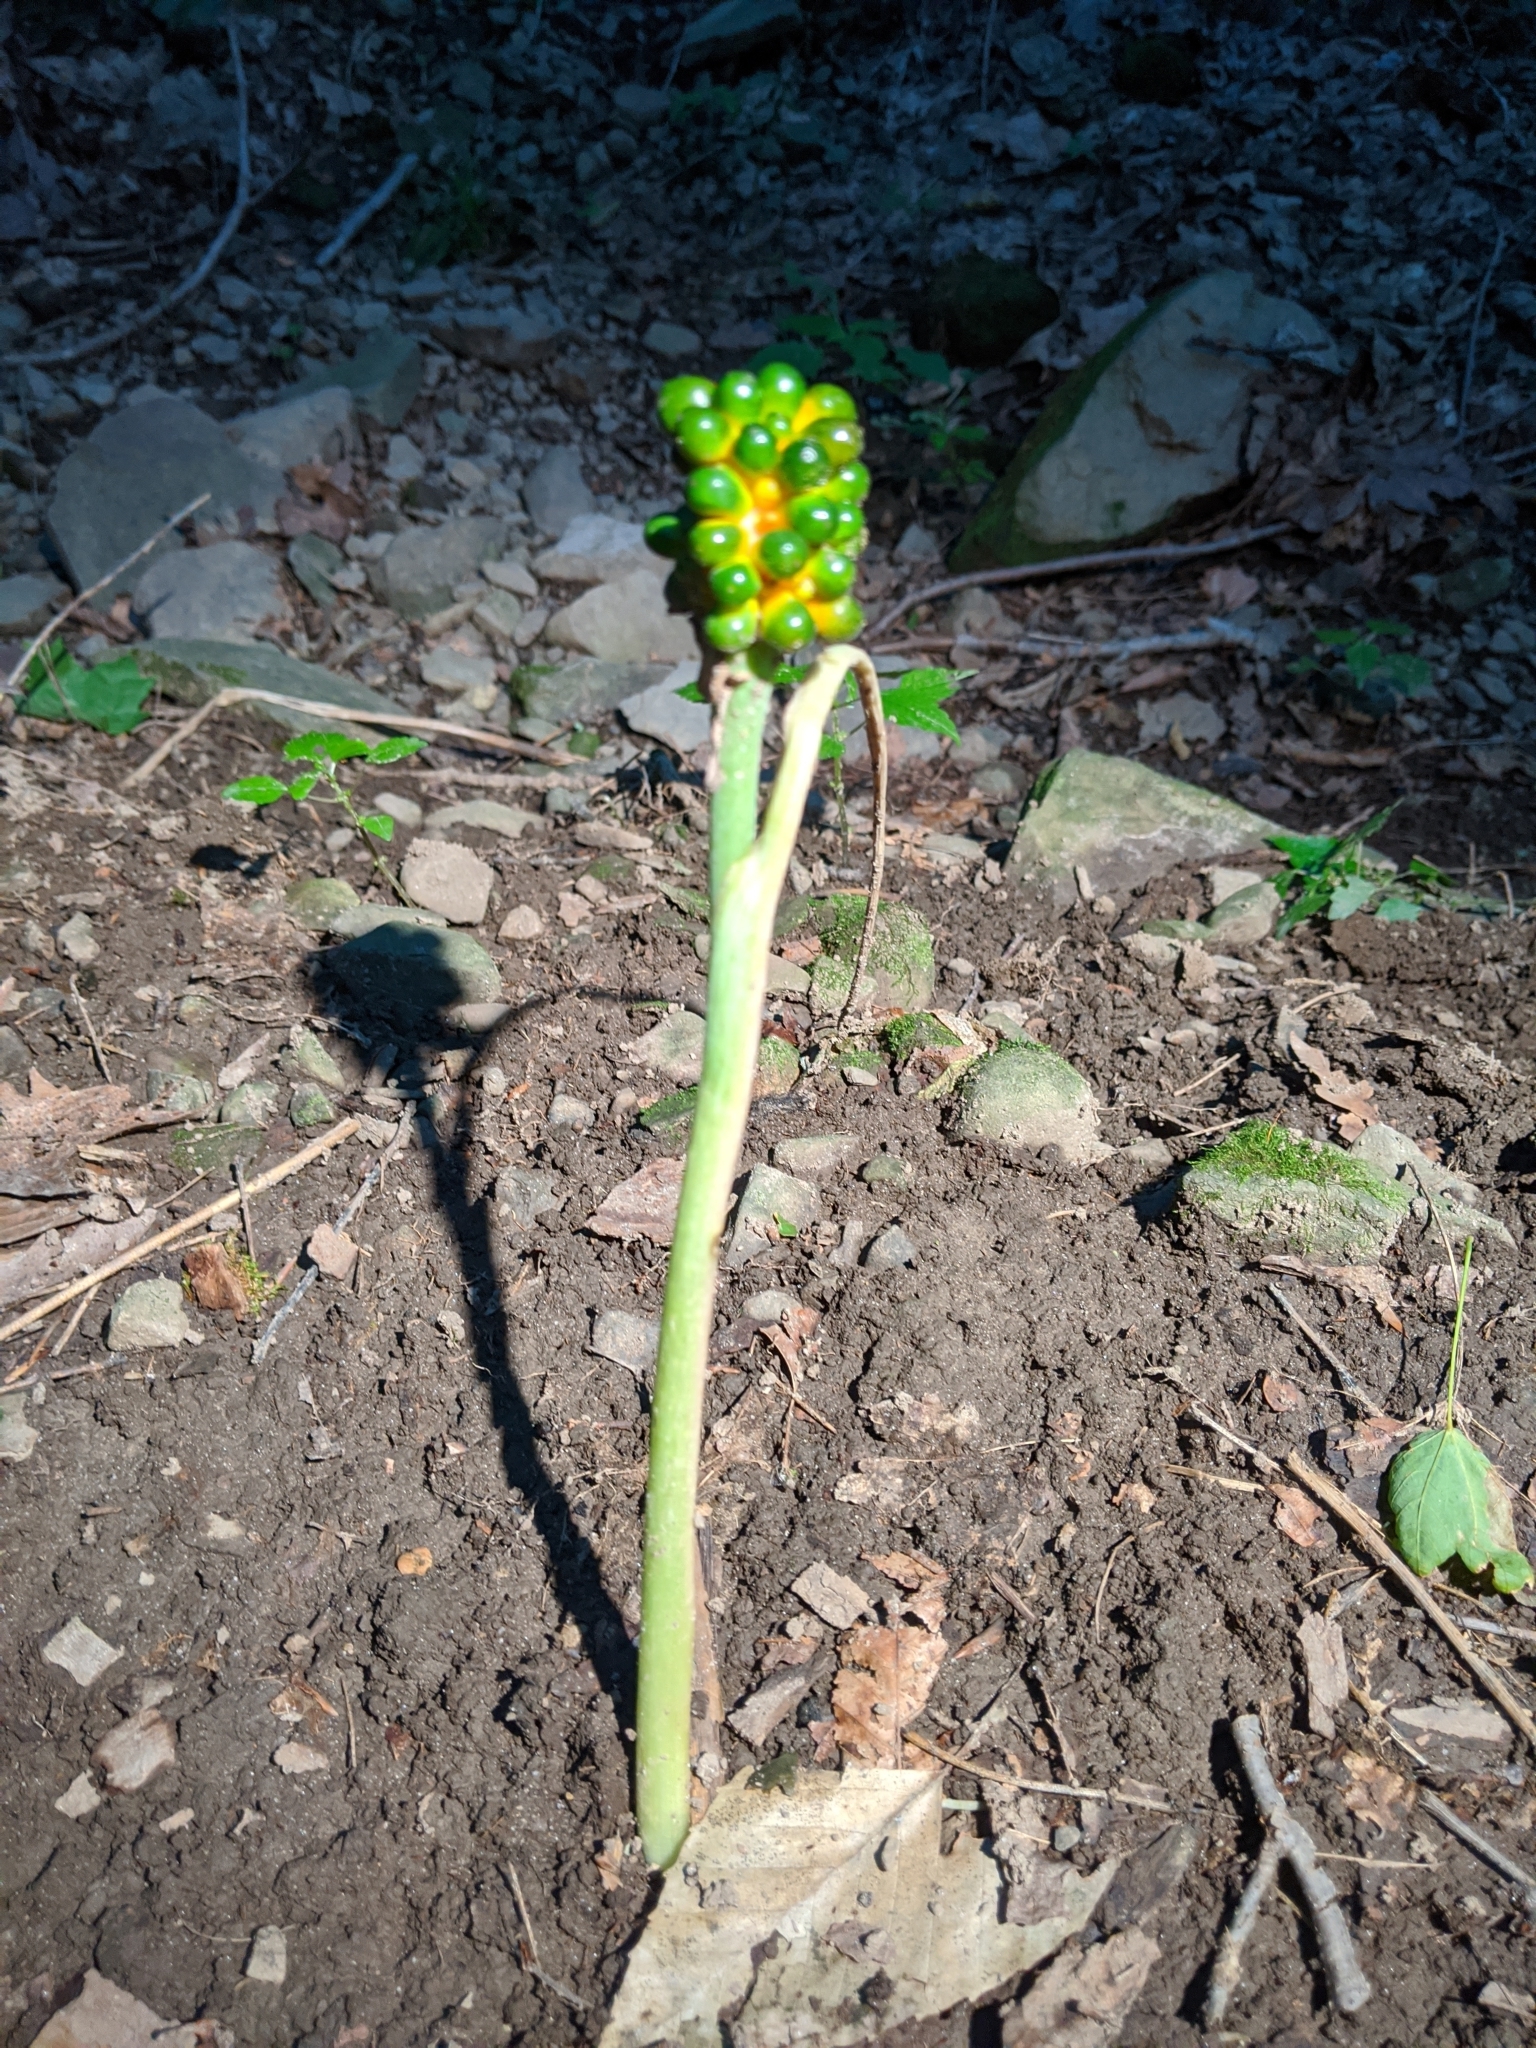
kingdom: Plantae
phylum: Tracheophyta
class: Liliopsida
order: Alismatales
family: Araceae
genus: Arisaema
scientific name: Arisaema triphyllum
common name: Jack-in-the-pulpit
